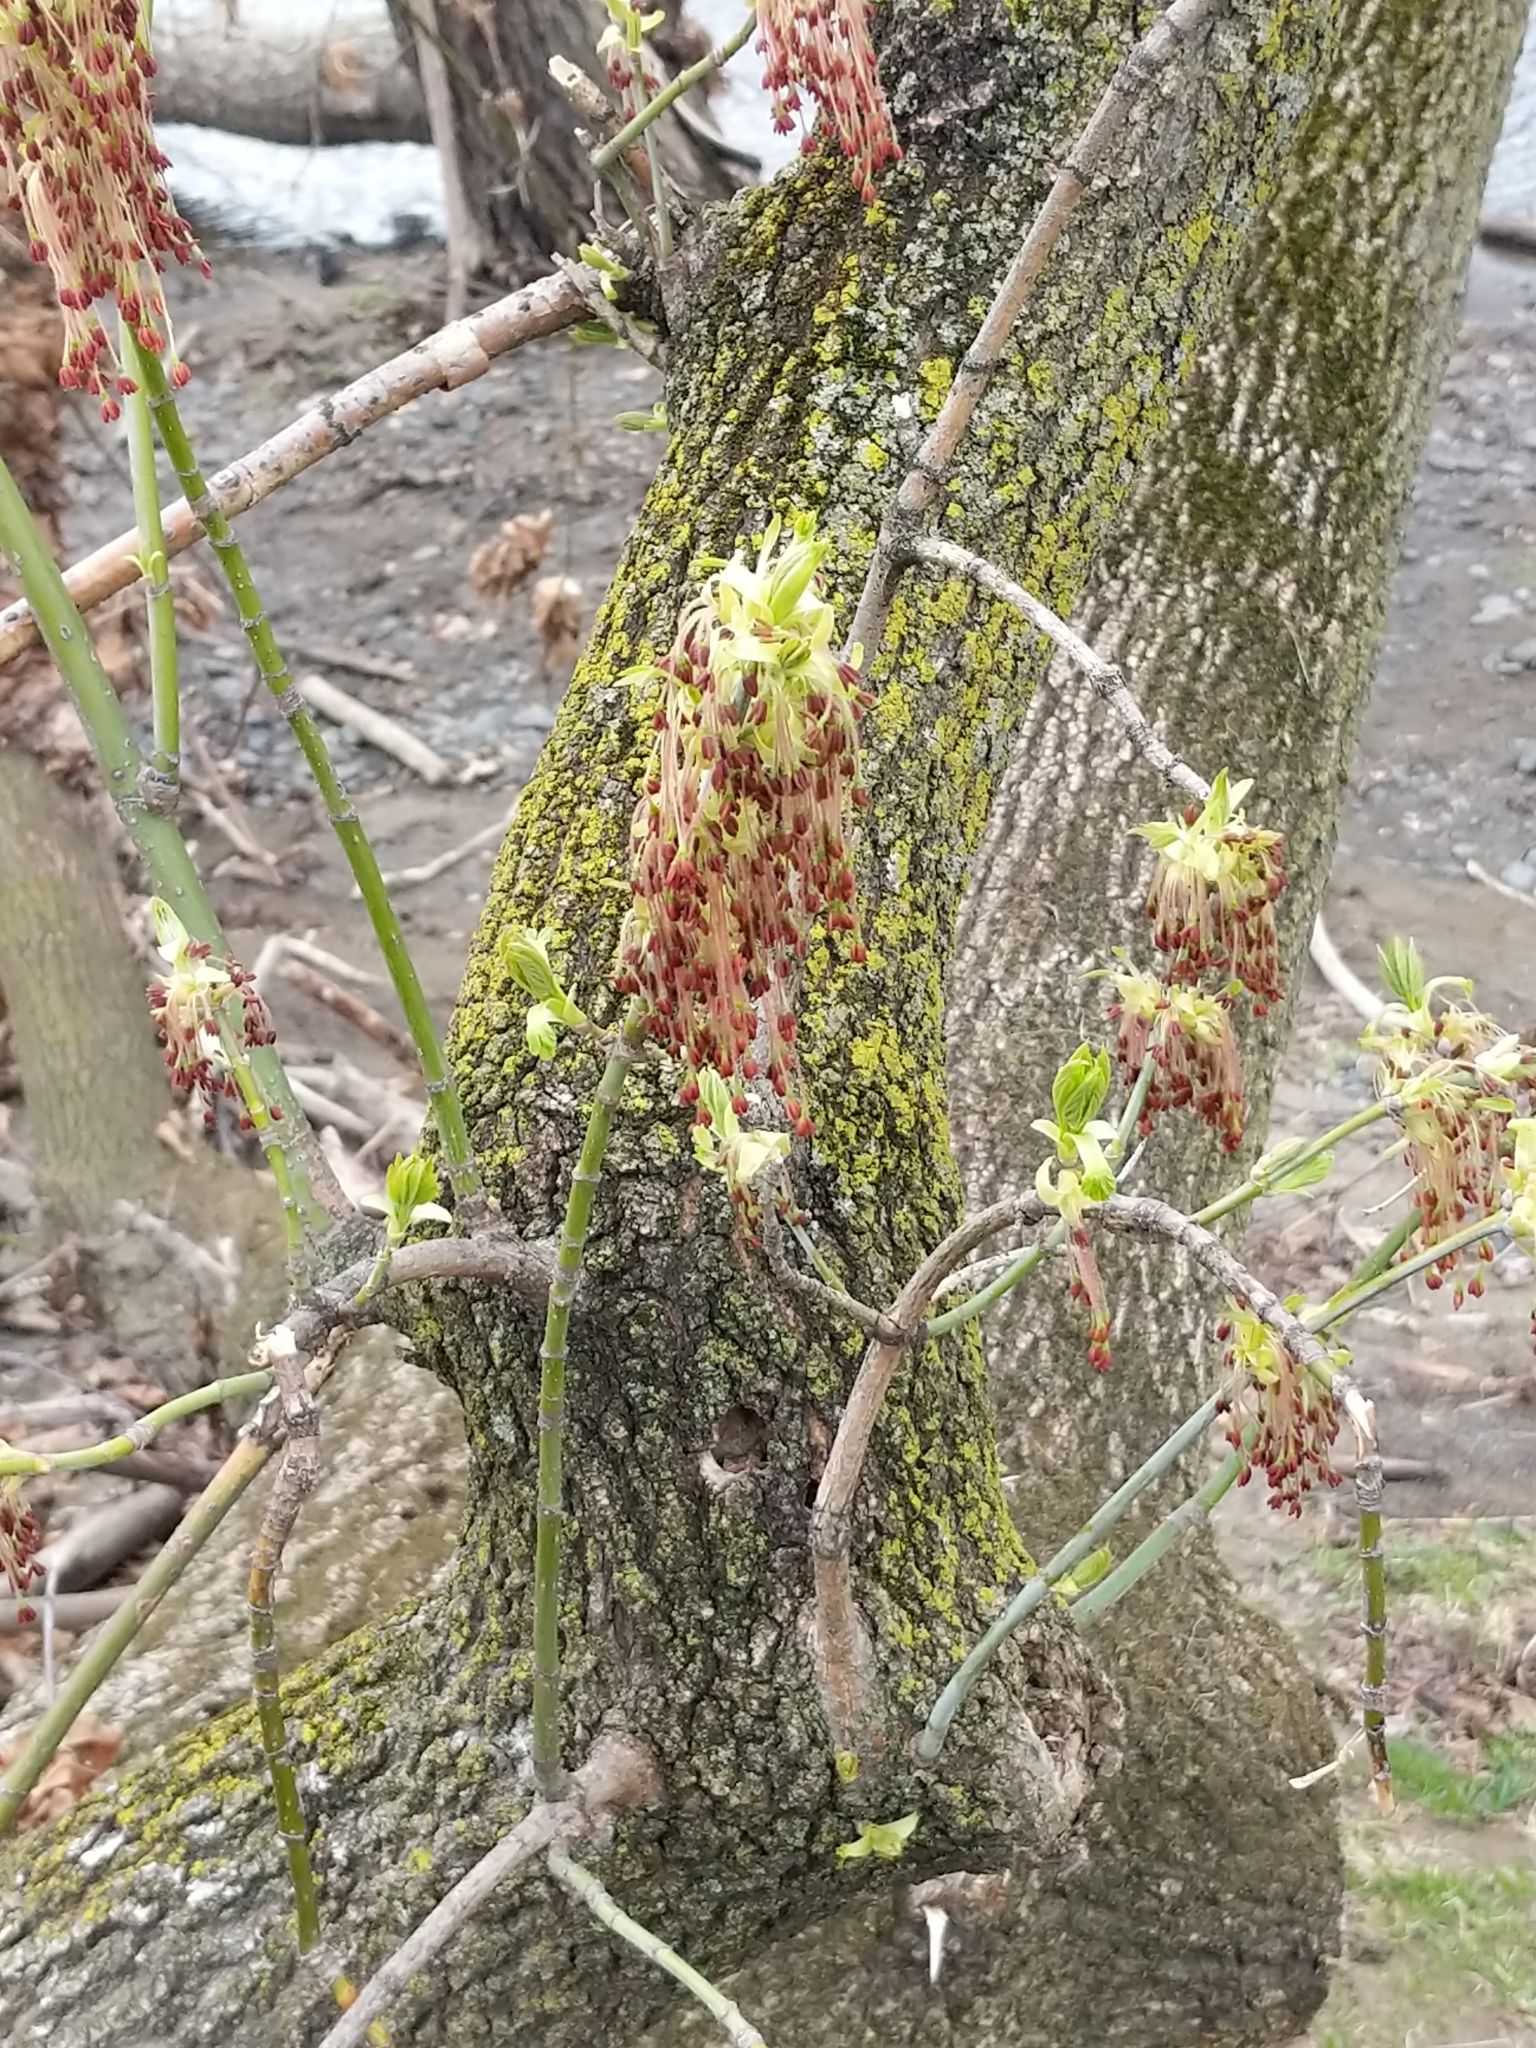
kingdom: Plantae
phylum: Tracheophyta
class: Magnoliopsida
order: Sapindales
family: Sapindaceae
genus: Acer
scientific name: Acer negundo
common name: Ashleaf maple
